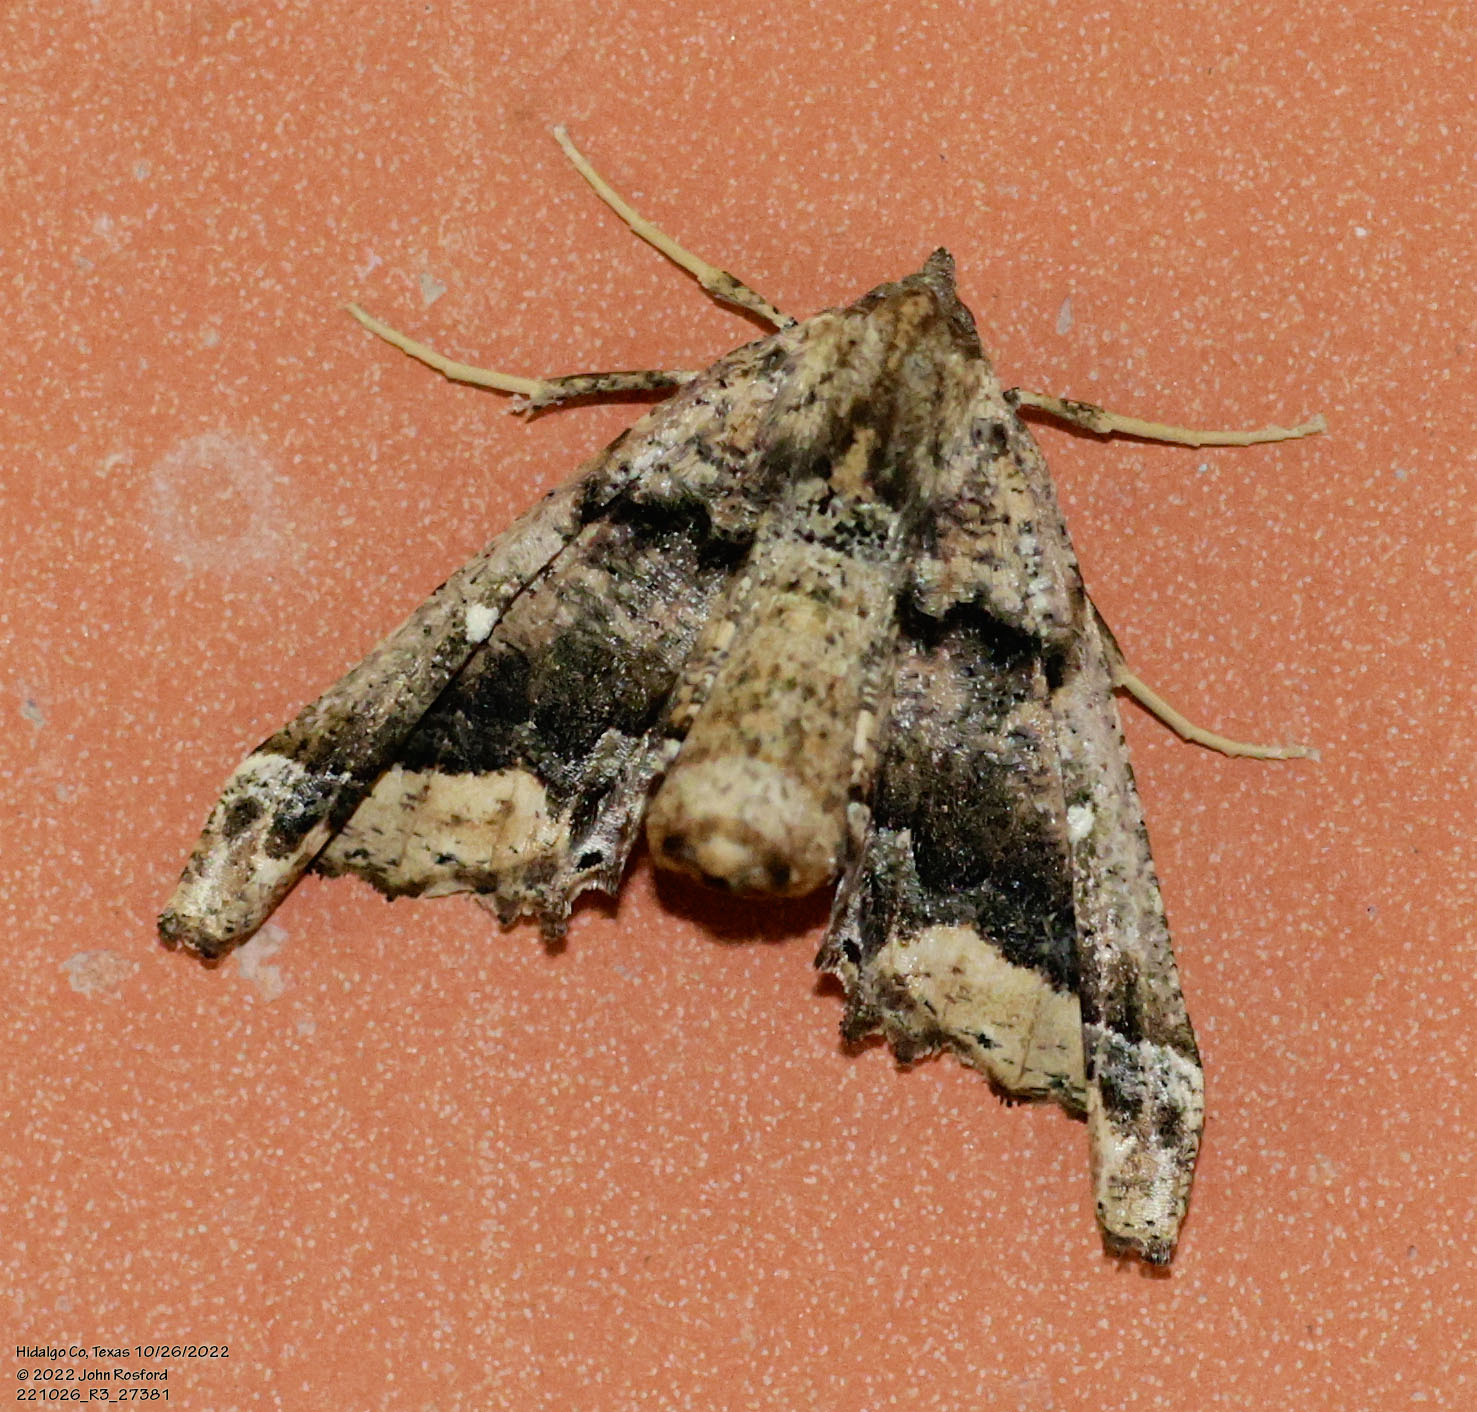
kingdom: Animalia
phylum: Arthropoda
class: Insecta
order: Lepidoptera
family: Geometridae
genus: Pero
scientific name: Pero meskaria
